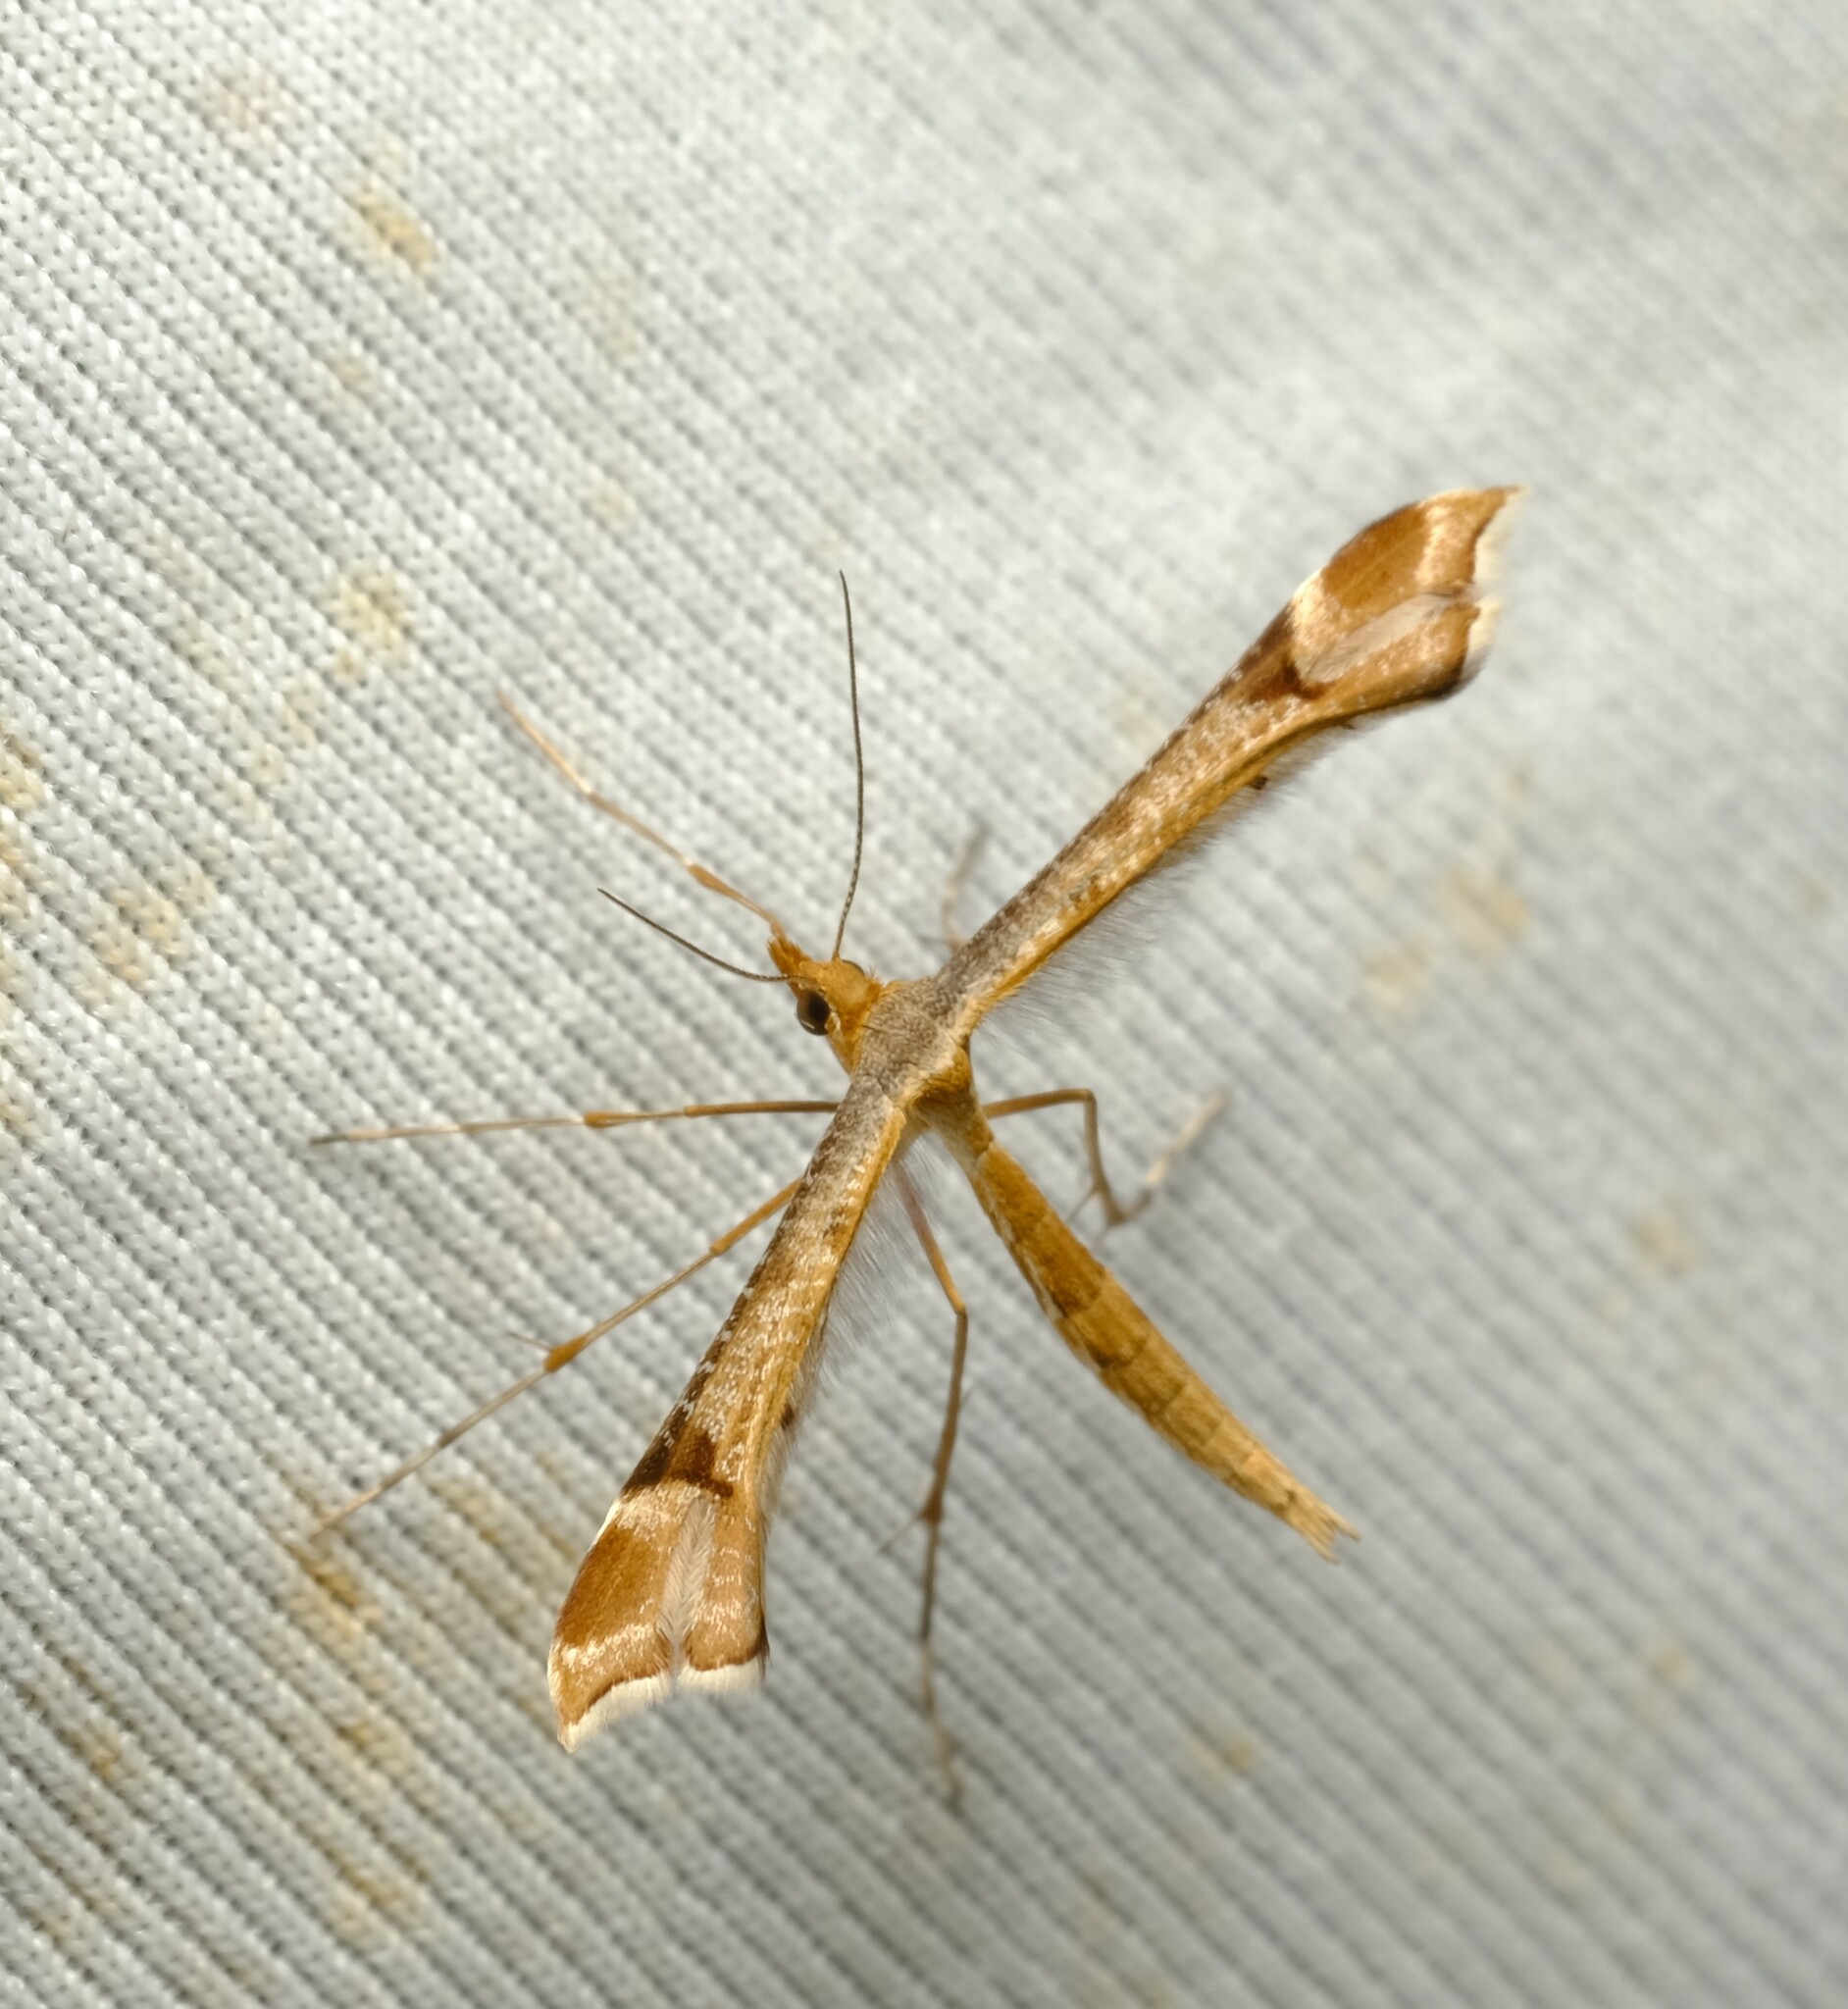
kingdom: Animalia
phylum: Arthropoda
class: Insecta
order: Lepidoptera
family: Pterophoridae
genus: Sinpunctiptilia
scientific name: Sinpunctiptilia emissalis
